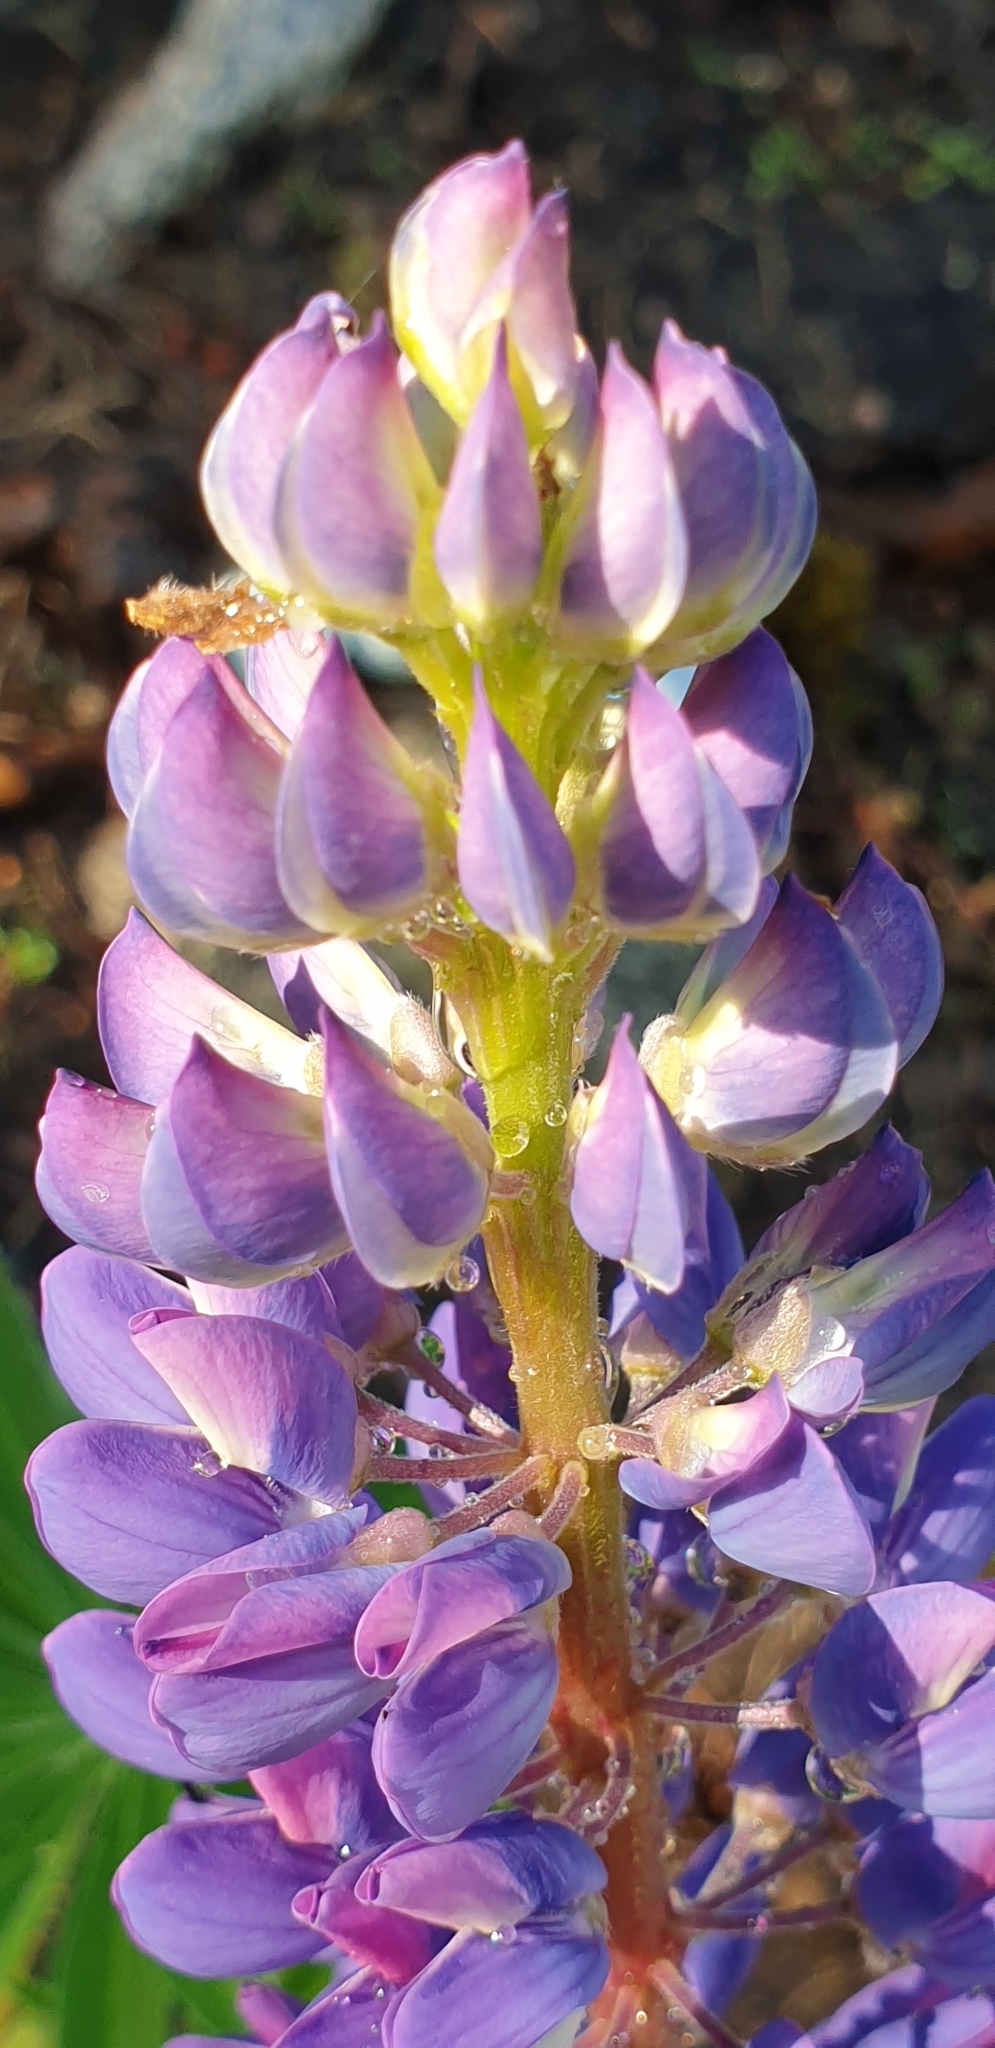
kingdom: Plantae
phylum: Tracheophyta
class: Magnoliopsida
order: Fabales
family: Fabaceae
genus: Lupinus
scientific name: Lupinus polyphyllus
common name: Garden lupin
